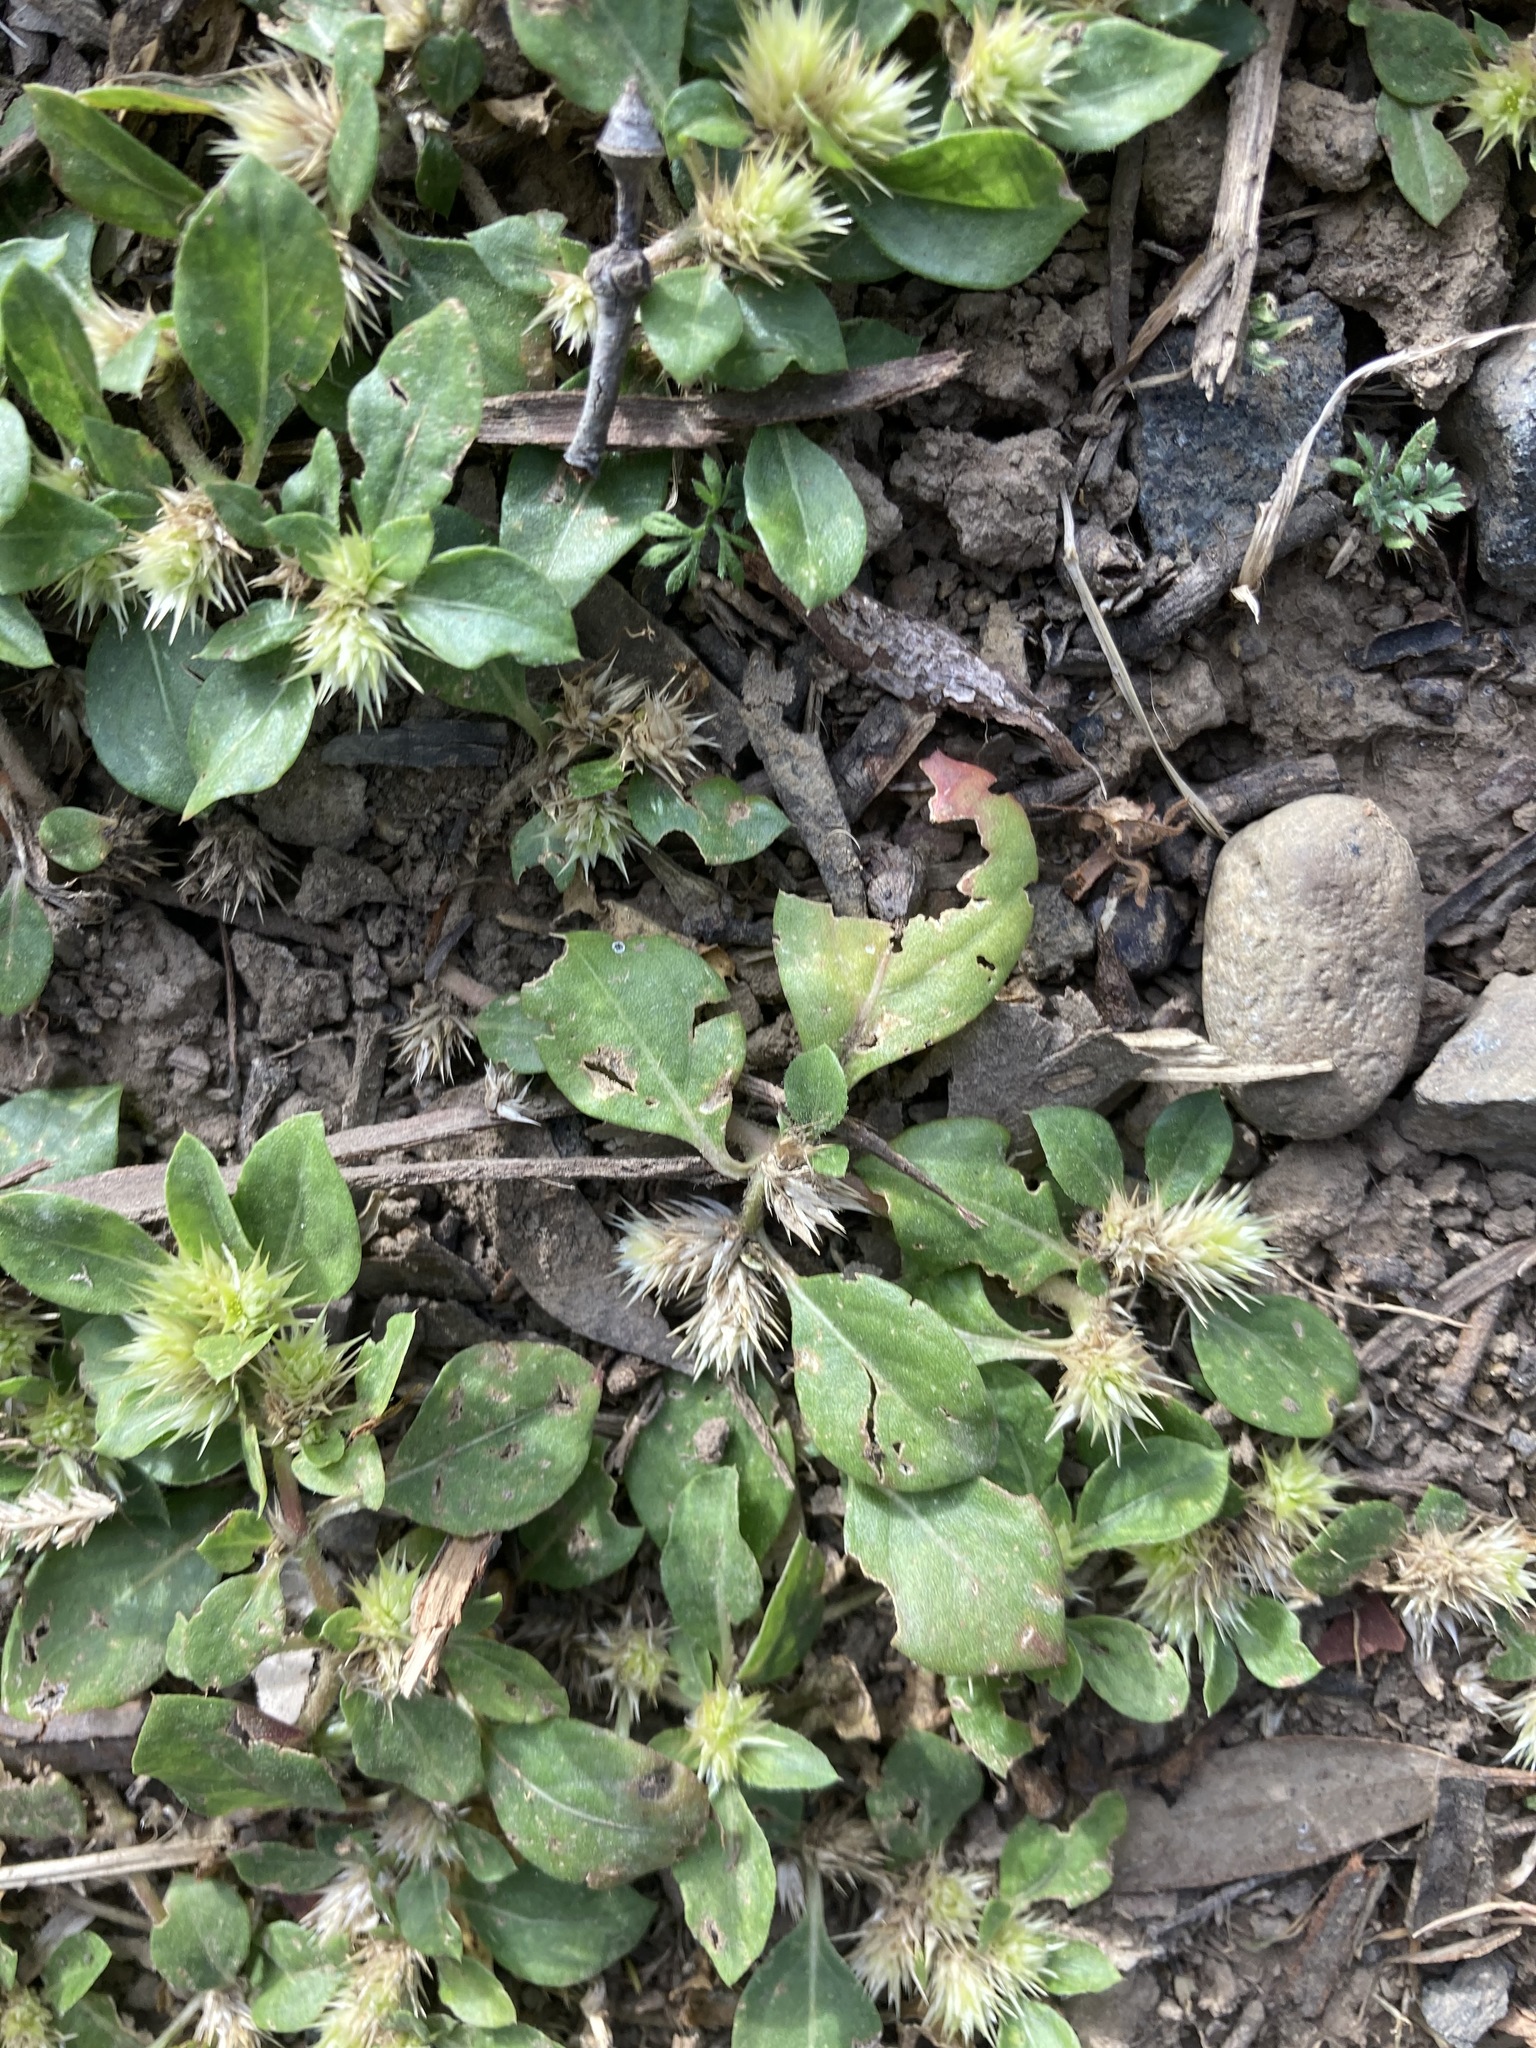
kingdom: Plantae
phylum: Tracheophyta
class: Magnoliopsida
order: Caryophyllales
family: Amaranthaceae
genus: Alternanthera
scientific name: Alternanthera pungens
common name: Khakiweed
